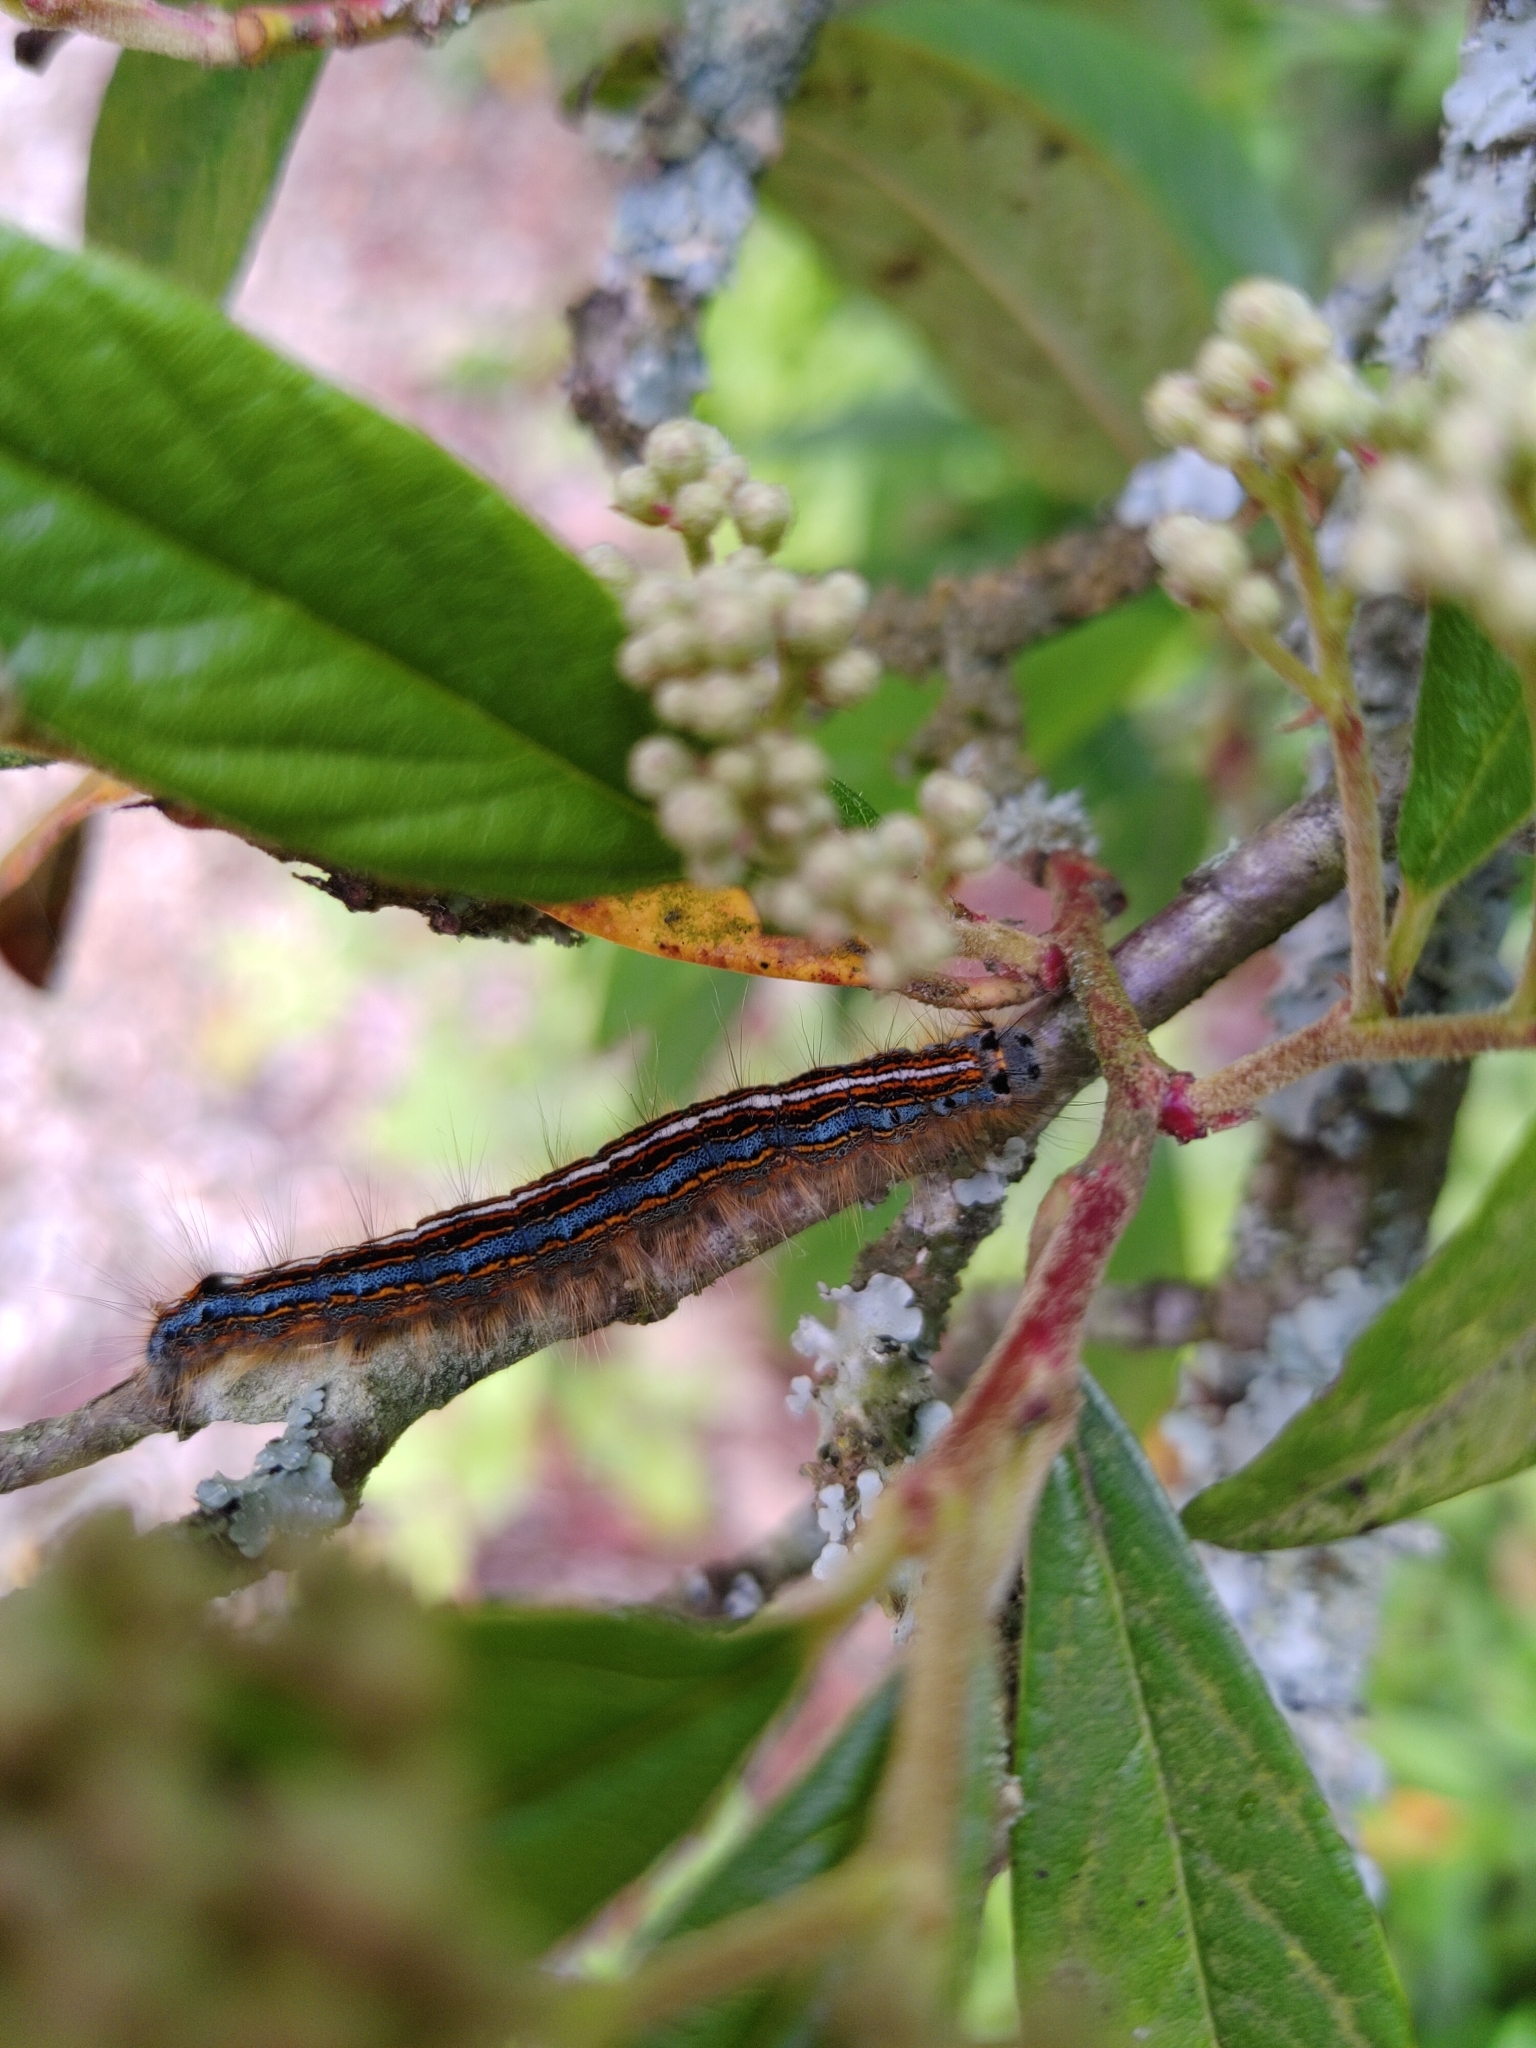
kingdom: Animalia
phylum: Arthropoda
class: Insecta
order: Lepidoptera
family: Lasiocampidae
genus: Malacosoma
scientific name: Malacosoma neustria
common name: The lackey
